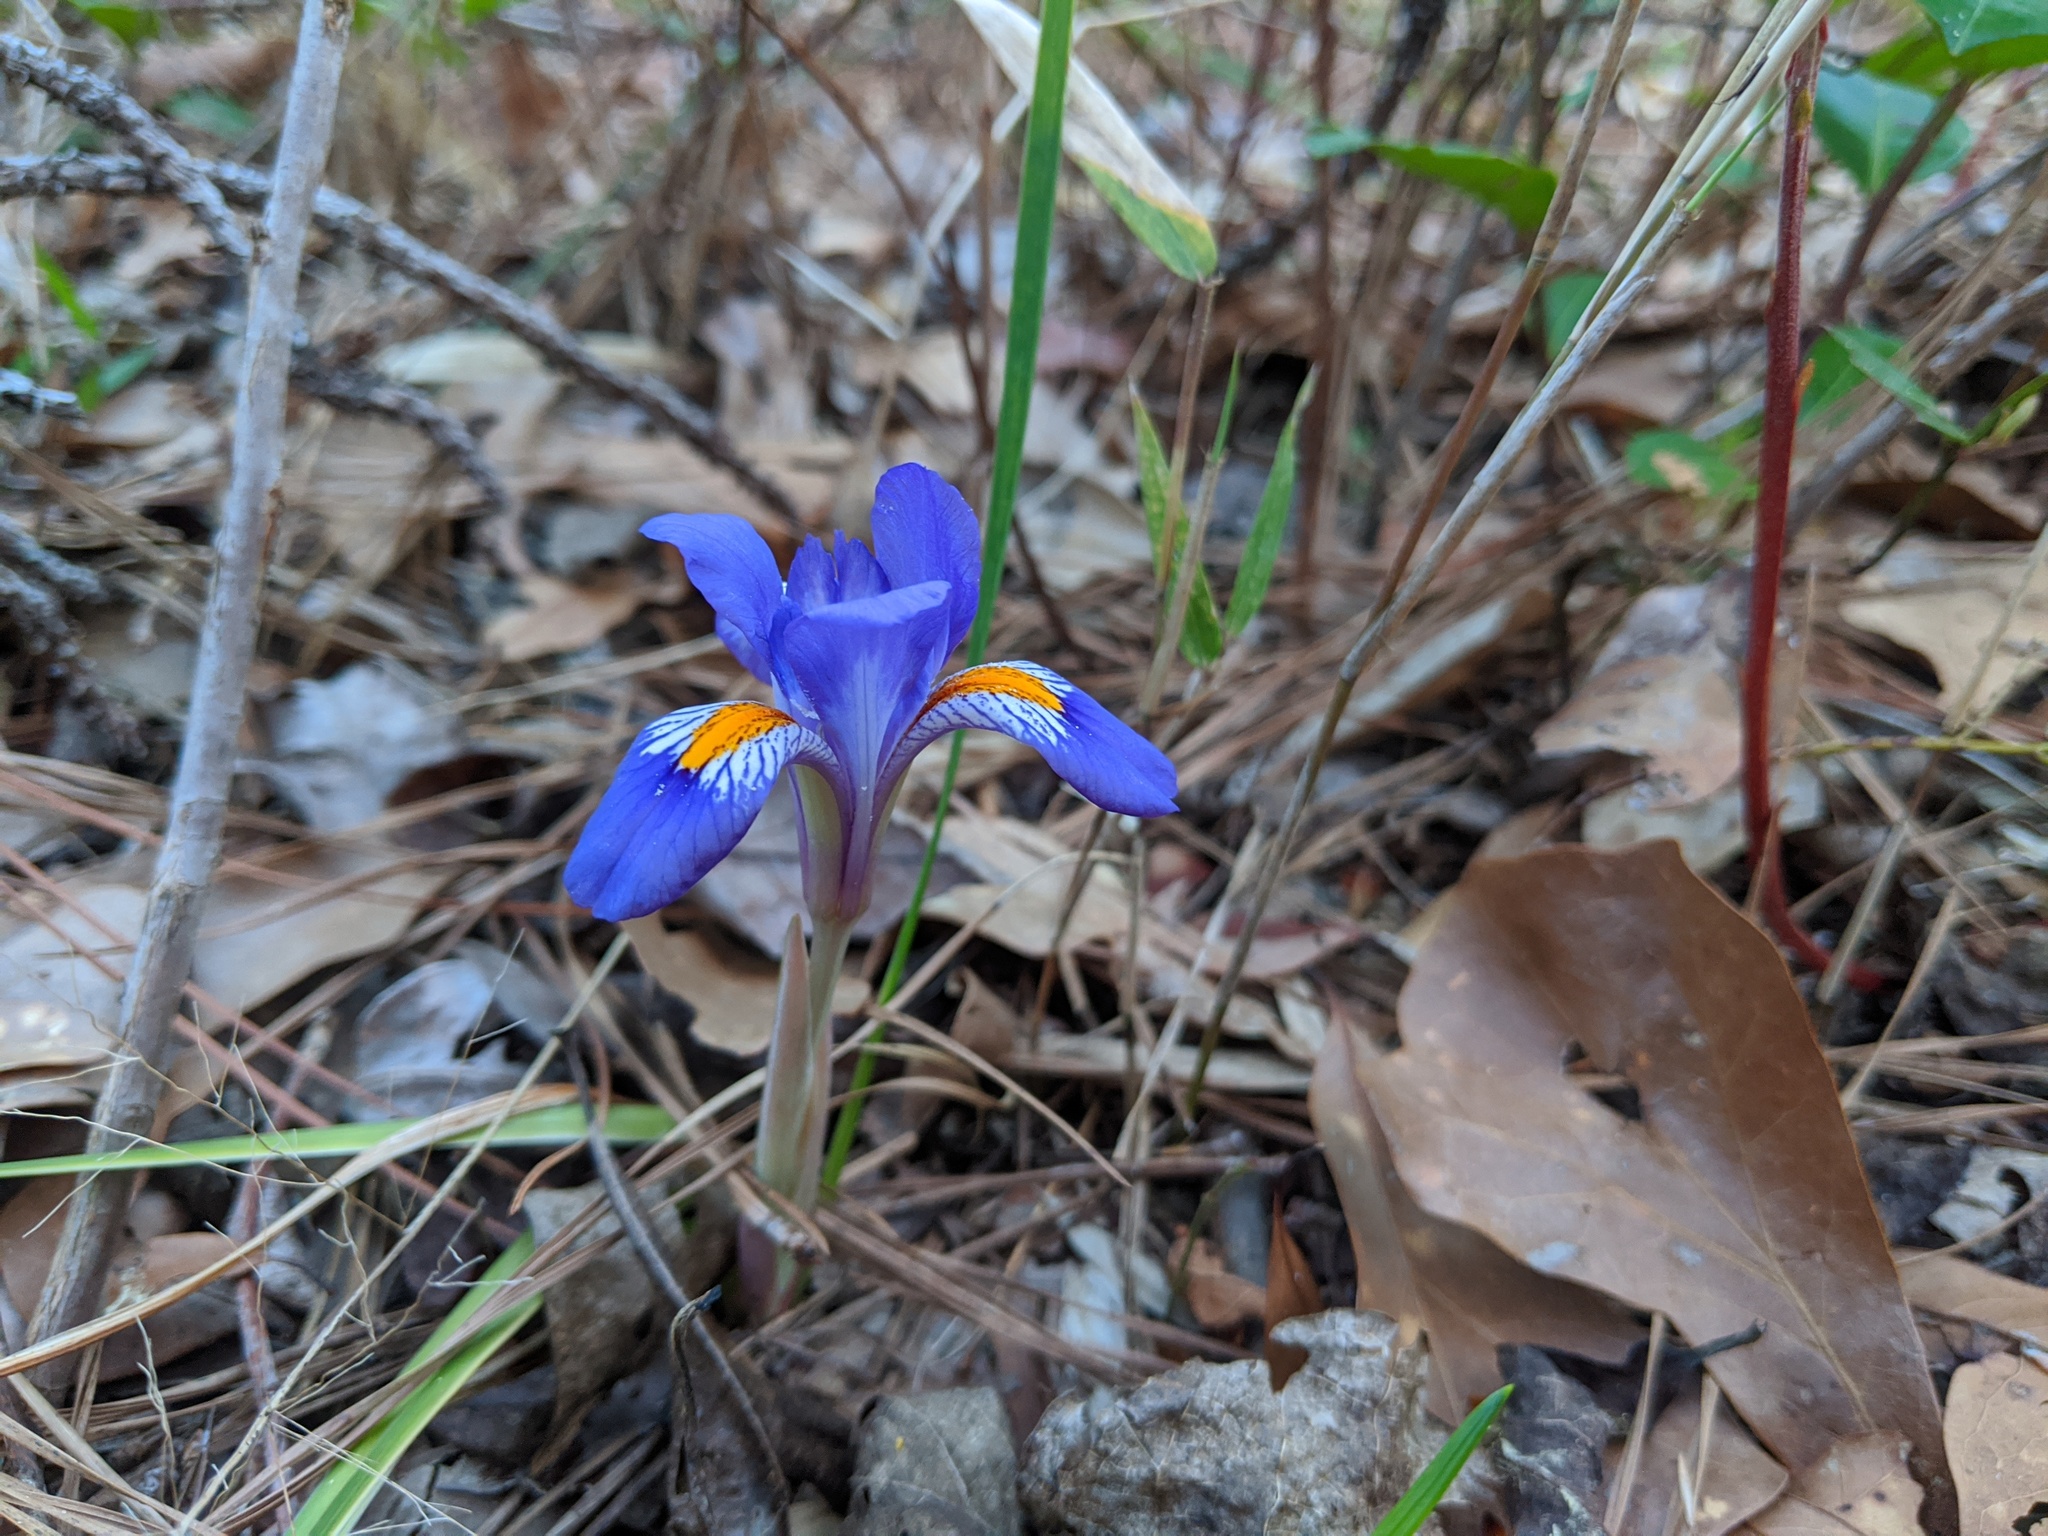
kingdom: Plantae
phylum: Tracheophyta
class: Liliopsida
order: Asparagales
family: Iridaceae
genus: Iris
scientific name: Iris verna
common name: Dwarf iris
